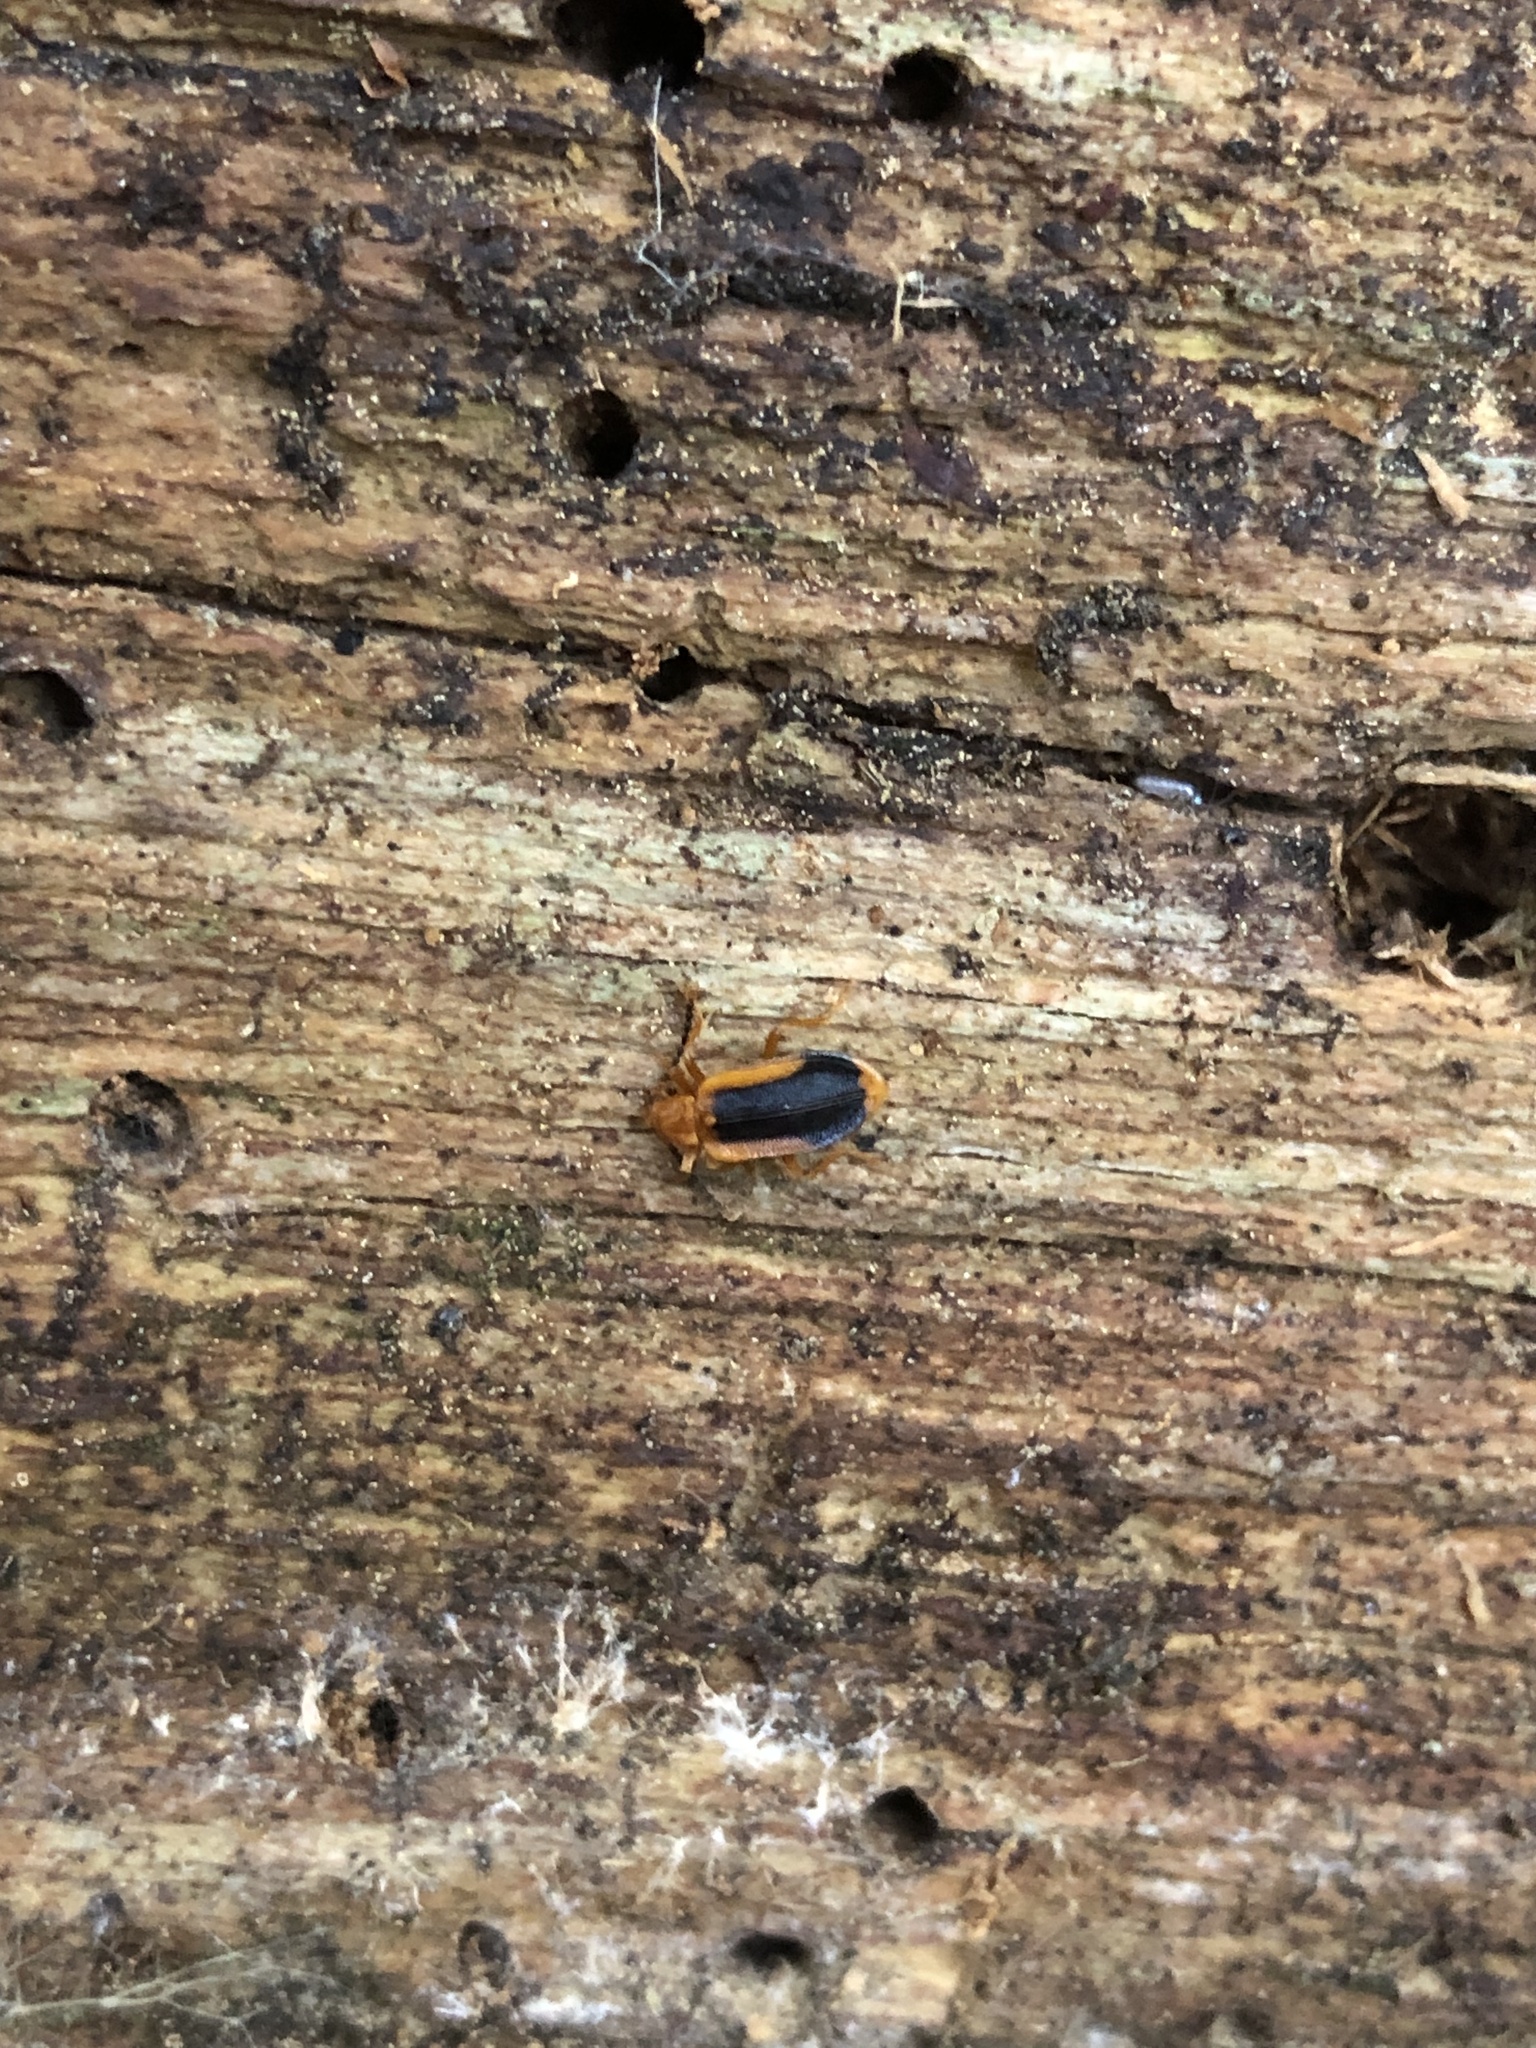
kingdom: Animalia
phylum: Arthropoda
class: Insecta
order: Coleoptera
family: Anthicidae
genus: Ischalia
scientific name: Ischalia californica
